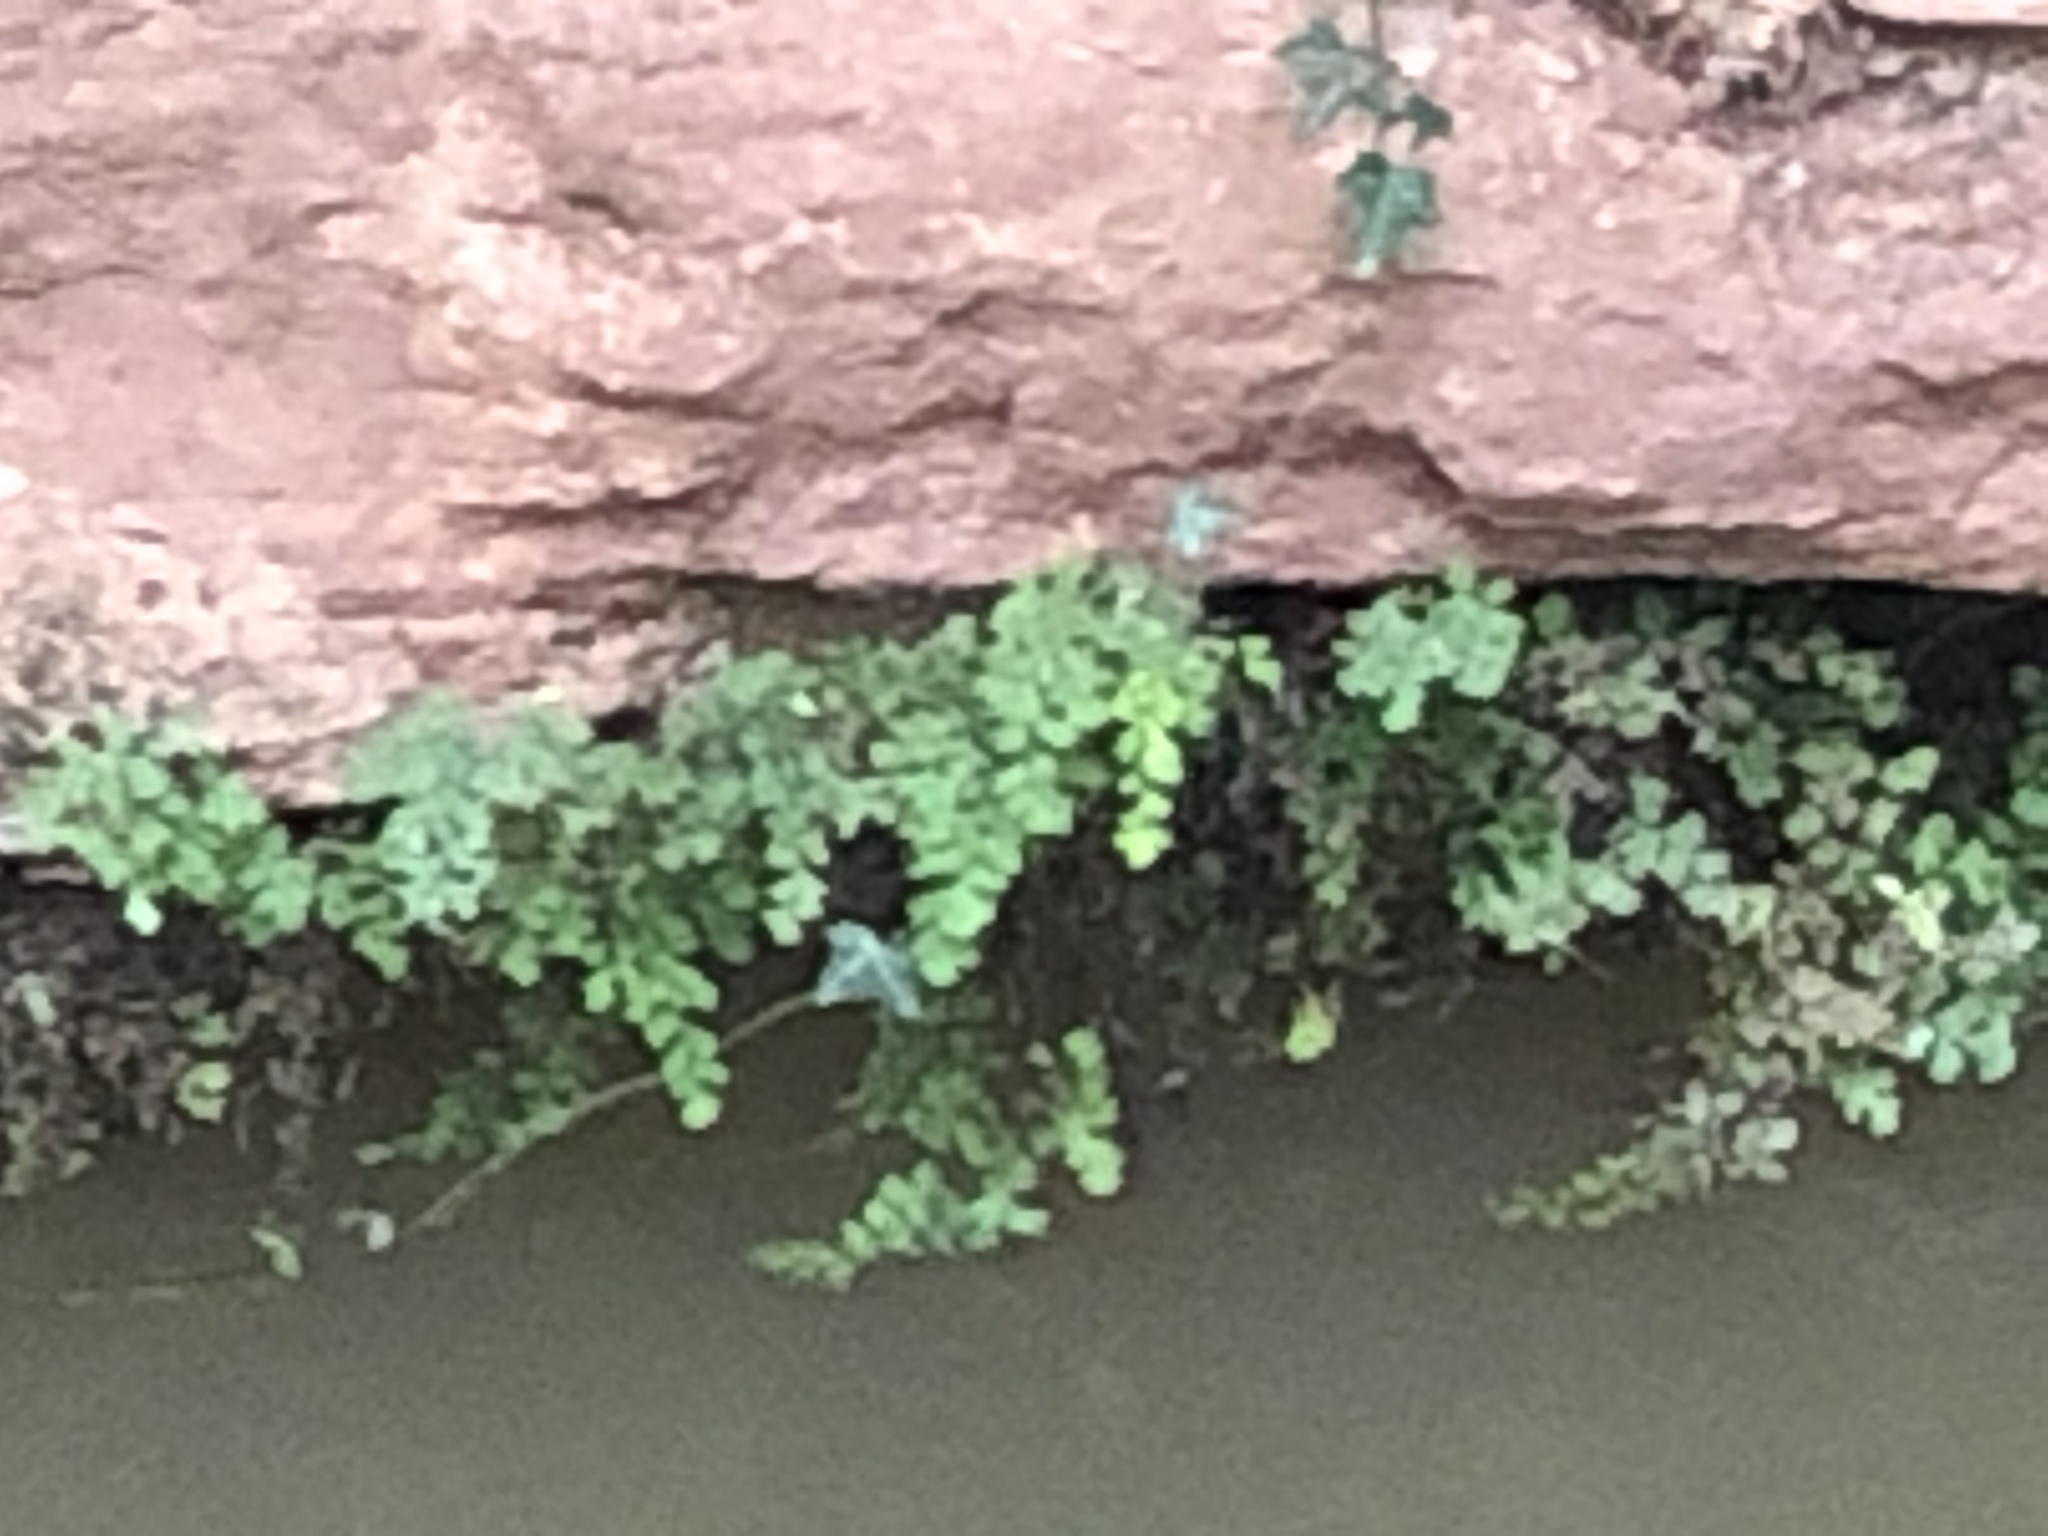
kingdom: Plantae
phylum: Tracheophyta
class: Polypodiopsida
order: Polypodiales
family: Pteridaceae
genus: Adiantum
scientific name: Adiantum capillus-veneris
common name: Maidenhair fern
